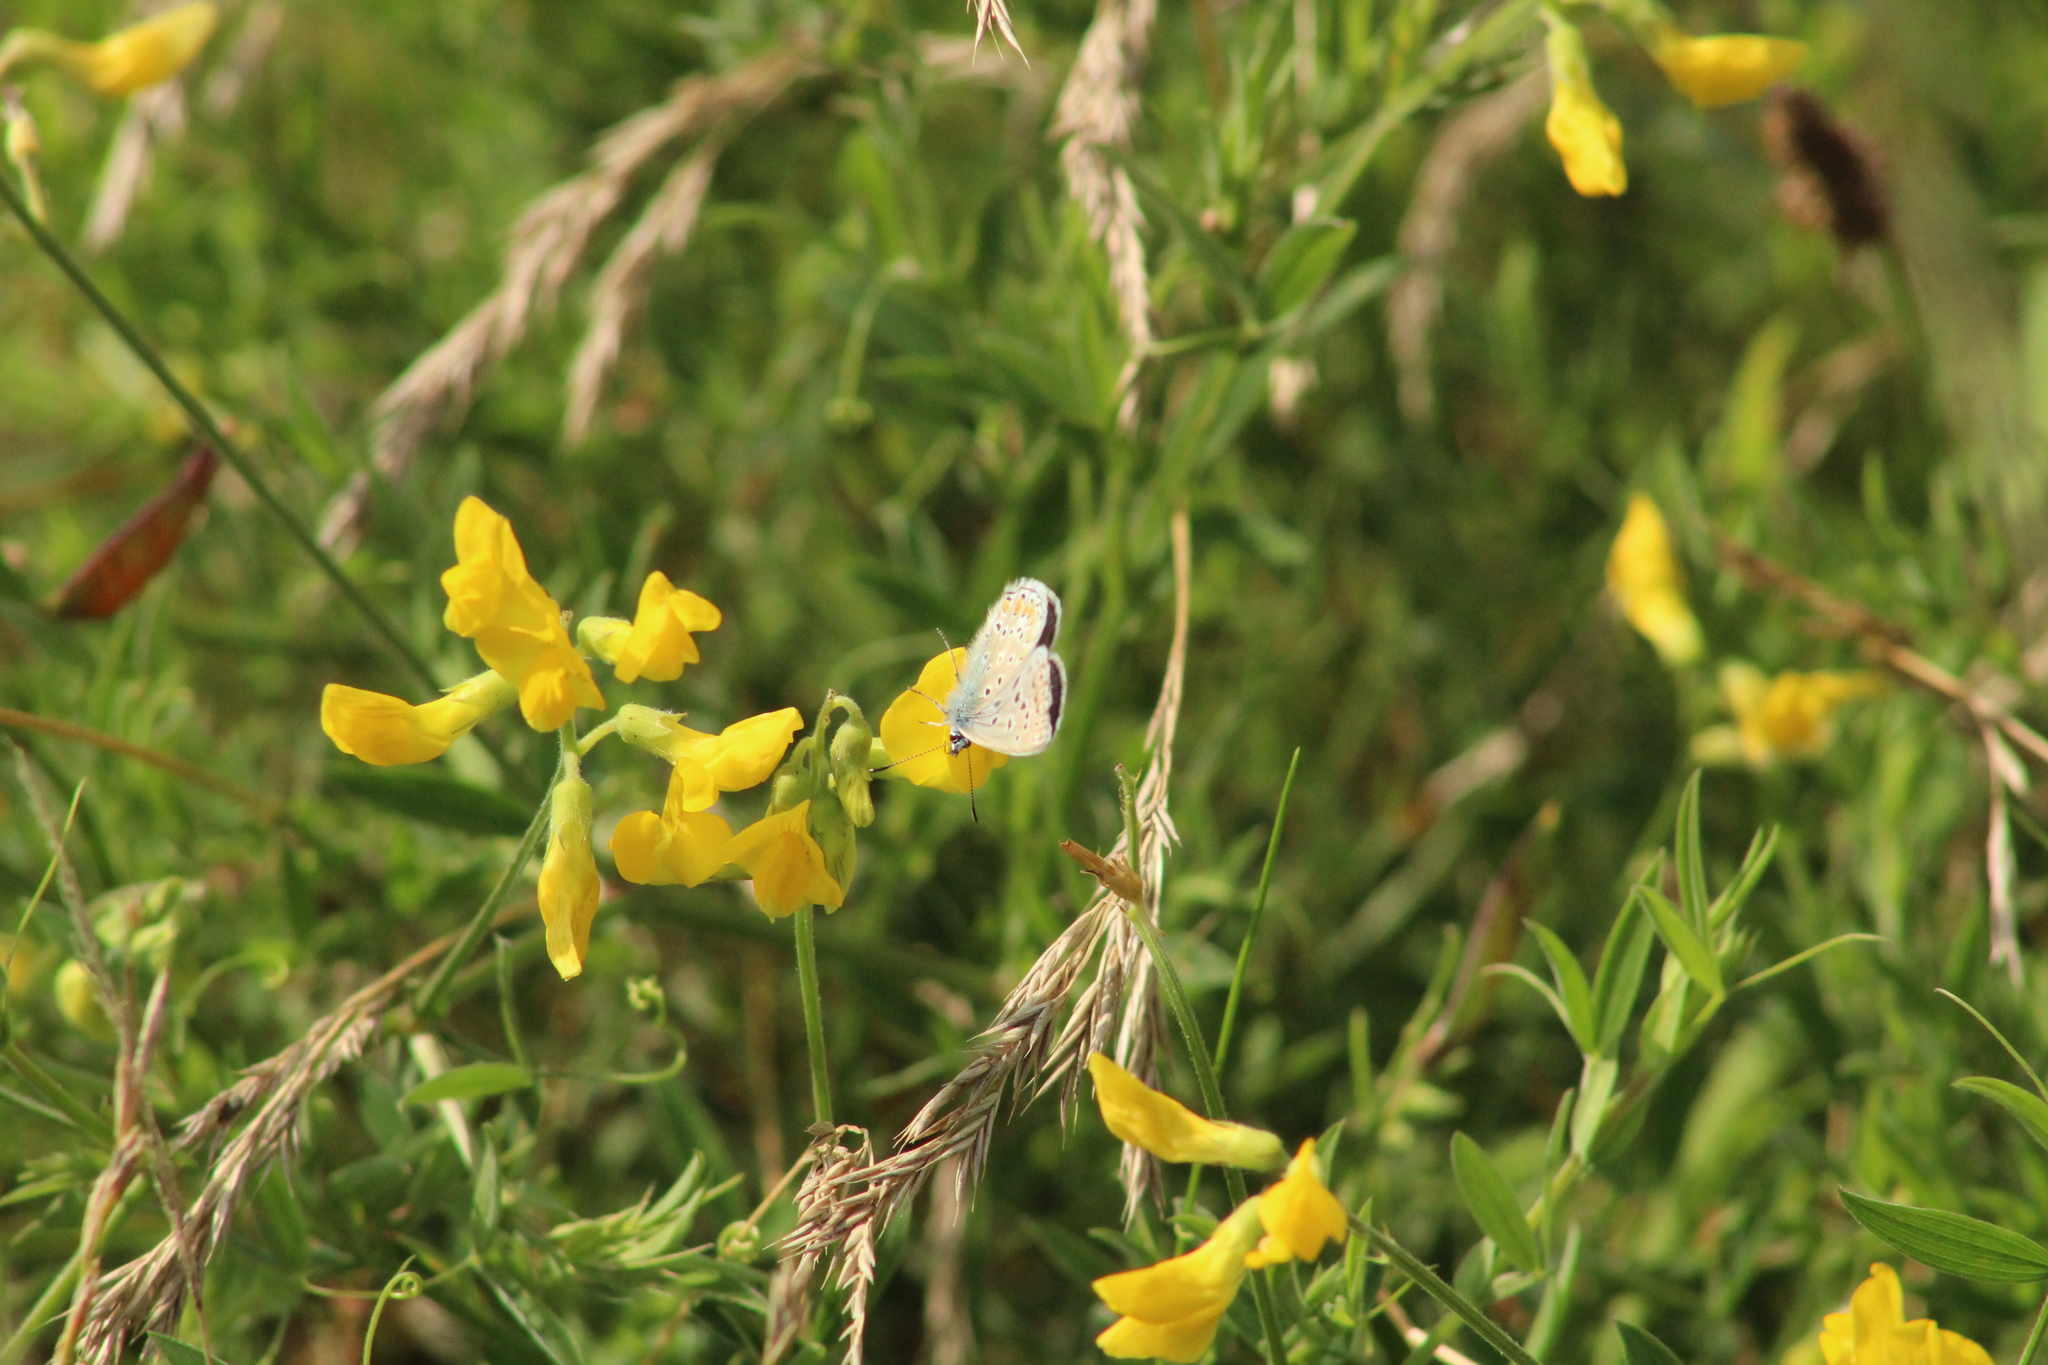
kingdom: Animalia
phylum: Arthropoda
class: Insecta
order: Lepidoptera
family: Lycaenidae
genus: Polyommatus
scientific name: Polyommatus icarus
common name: Common blue
